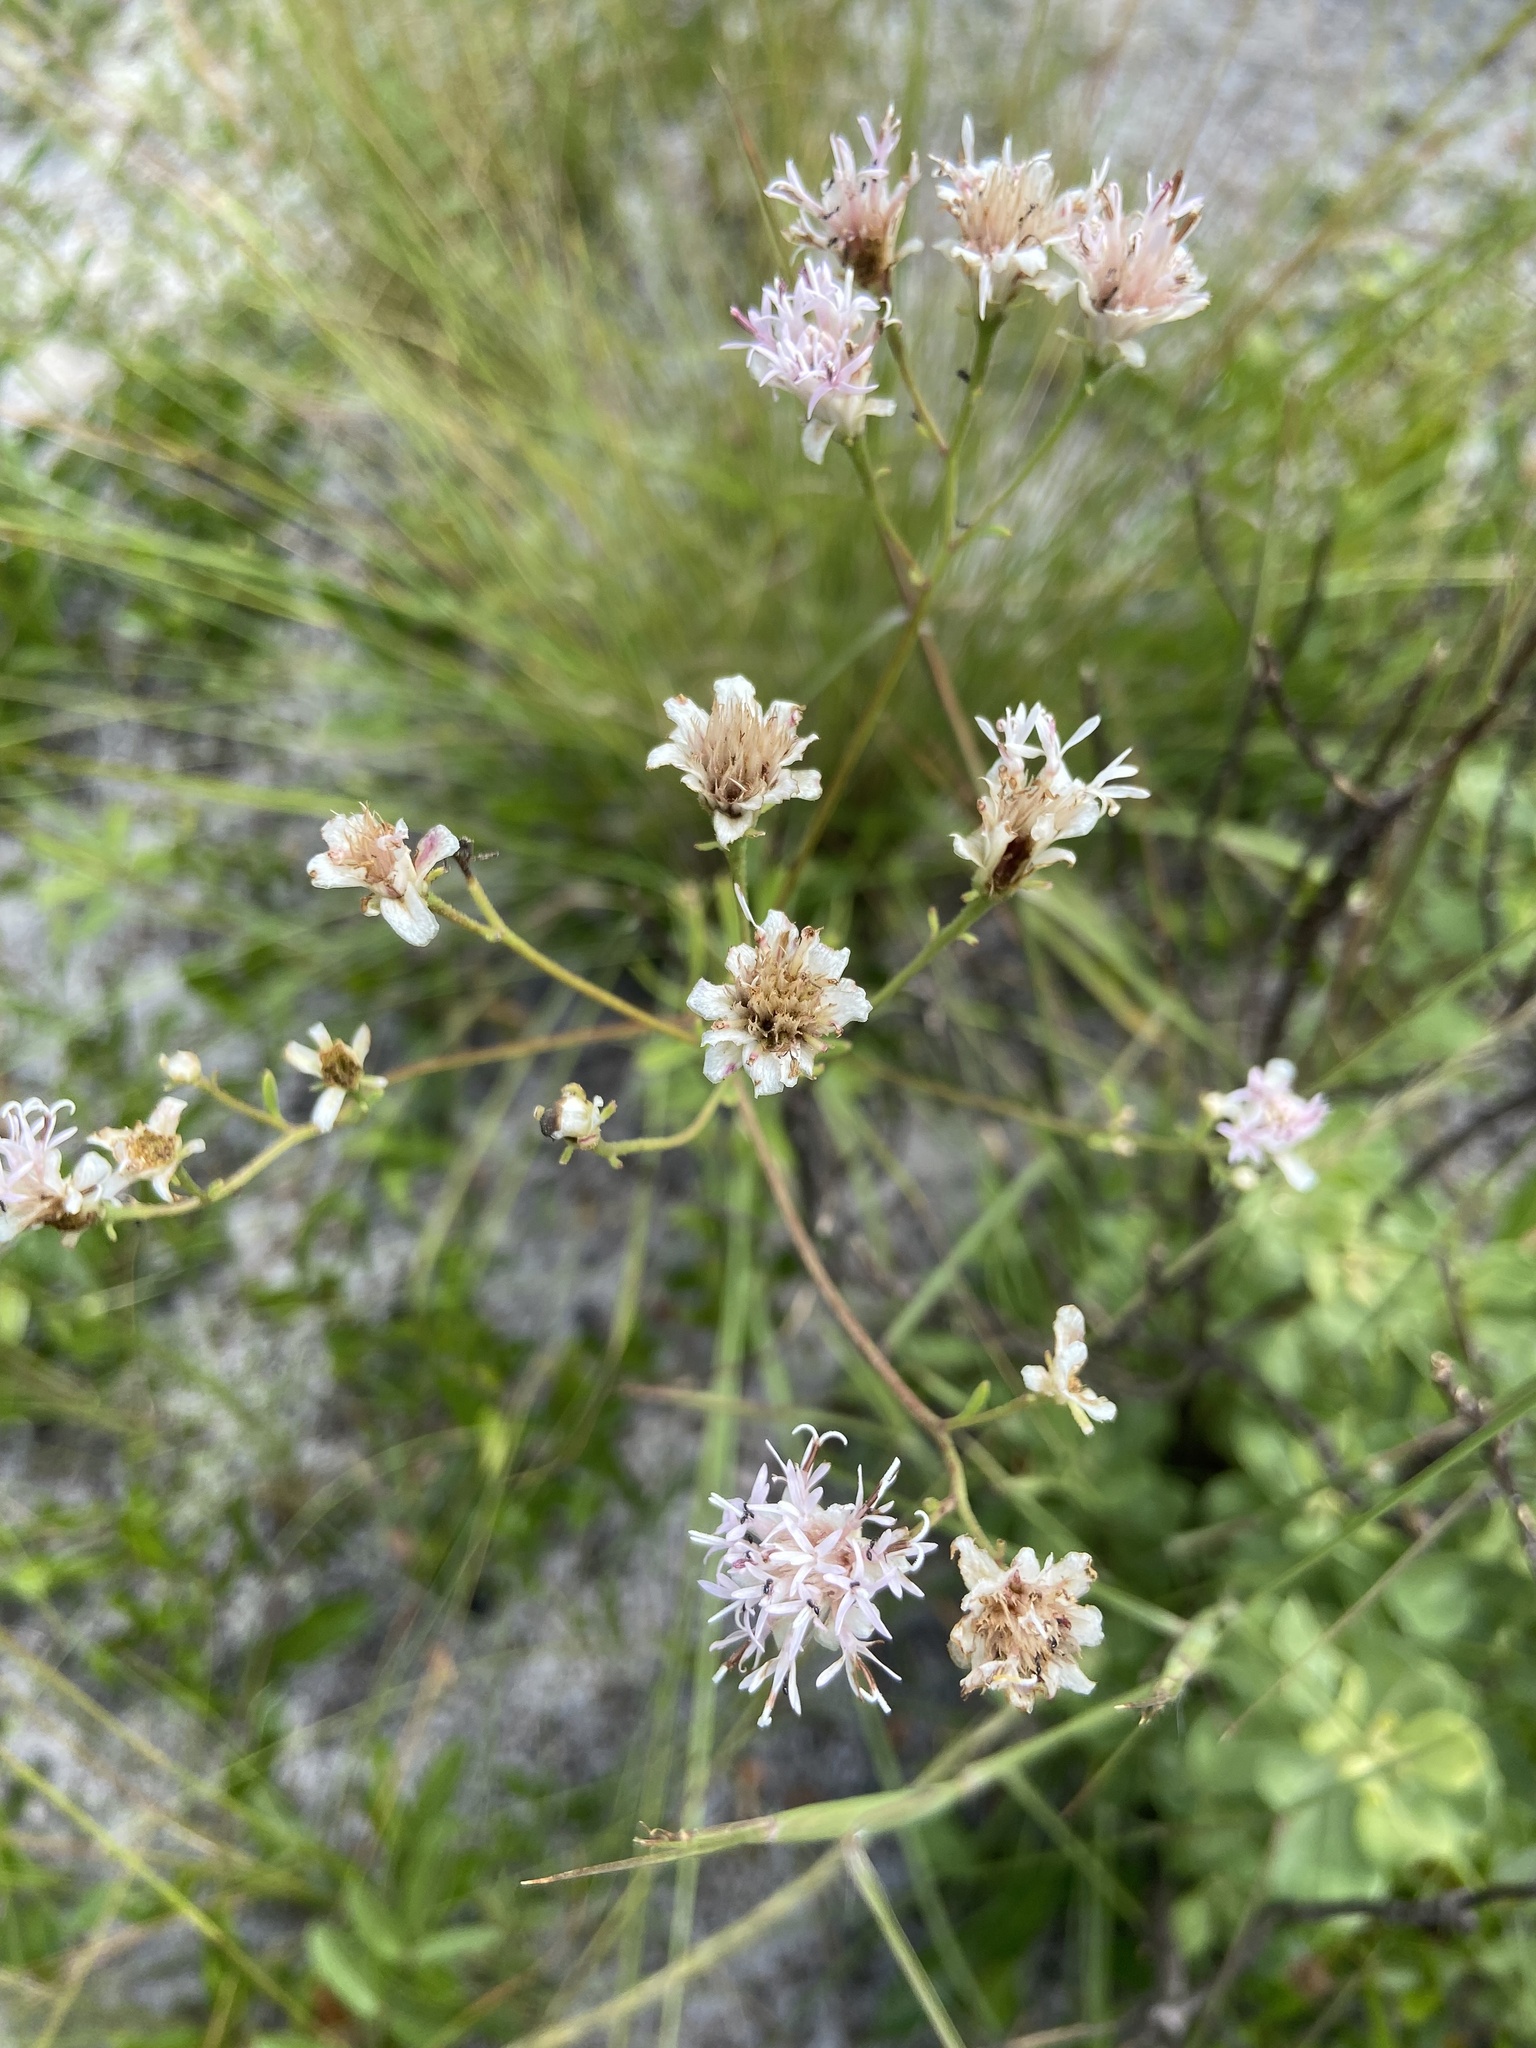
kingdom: Plantae
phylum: Tracheophyta
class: Magnoliopsida
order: Asterales
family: Asteraceae
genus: Palafoxia
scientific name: Palafoxia integrifolia
